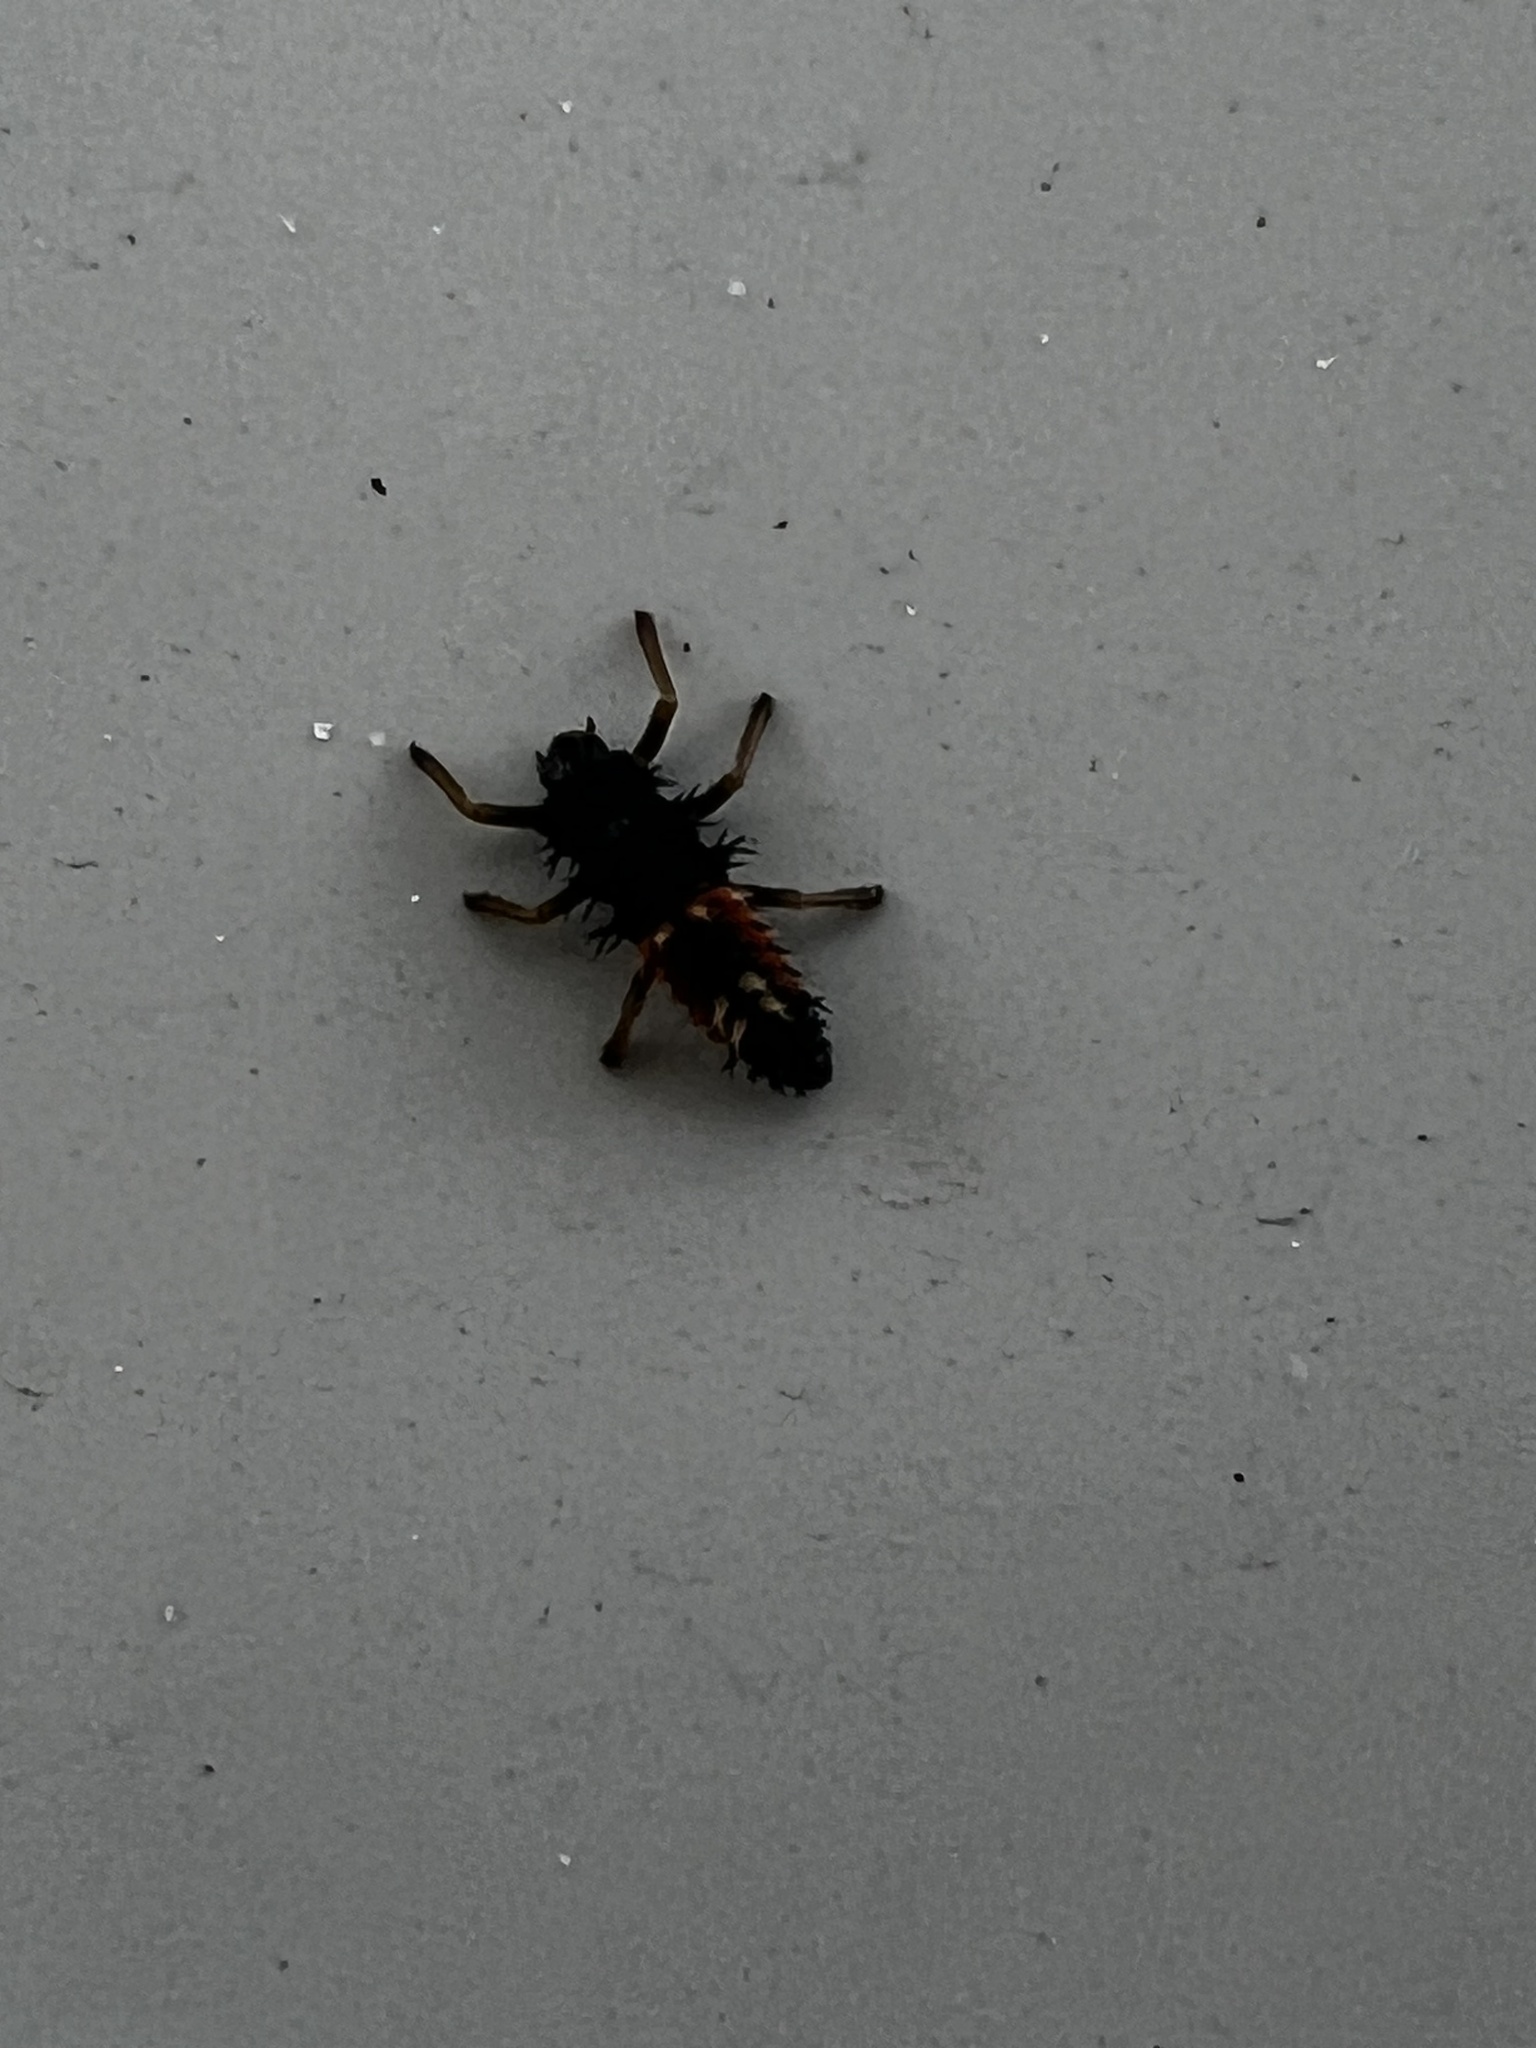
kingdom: Animalia
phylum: Arthropoda
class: Insecta
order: Coleoptera
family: Coccinellidae
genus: Harmonia
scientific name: Harmonia axyridis
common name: Harlequin ladybird
